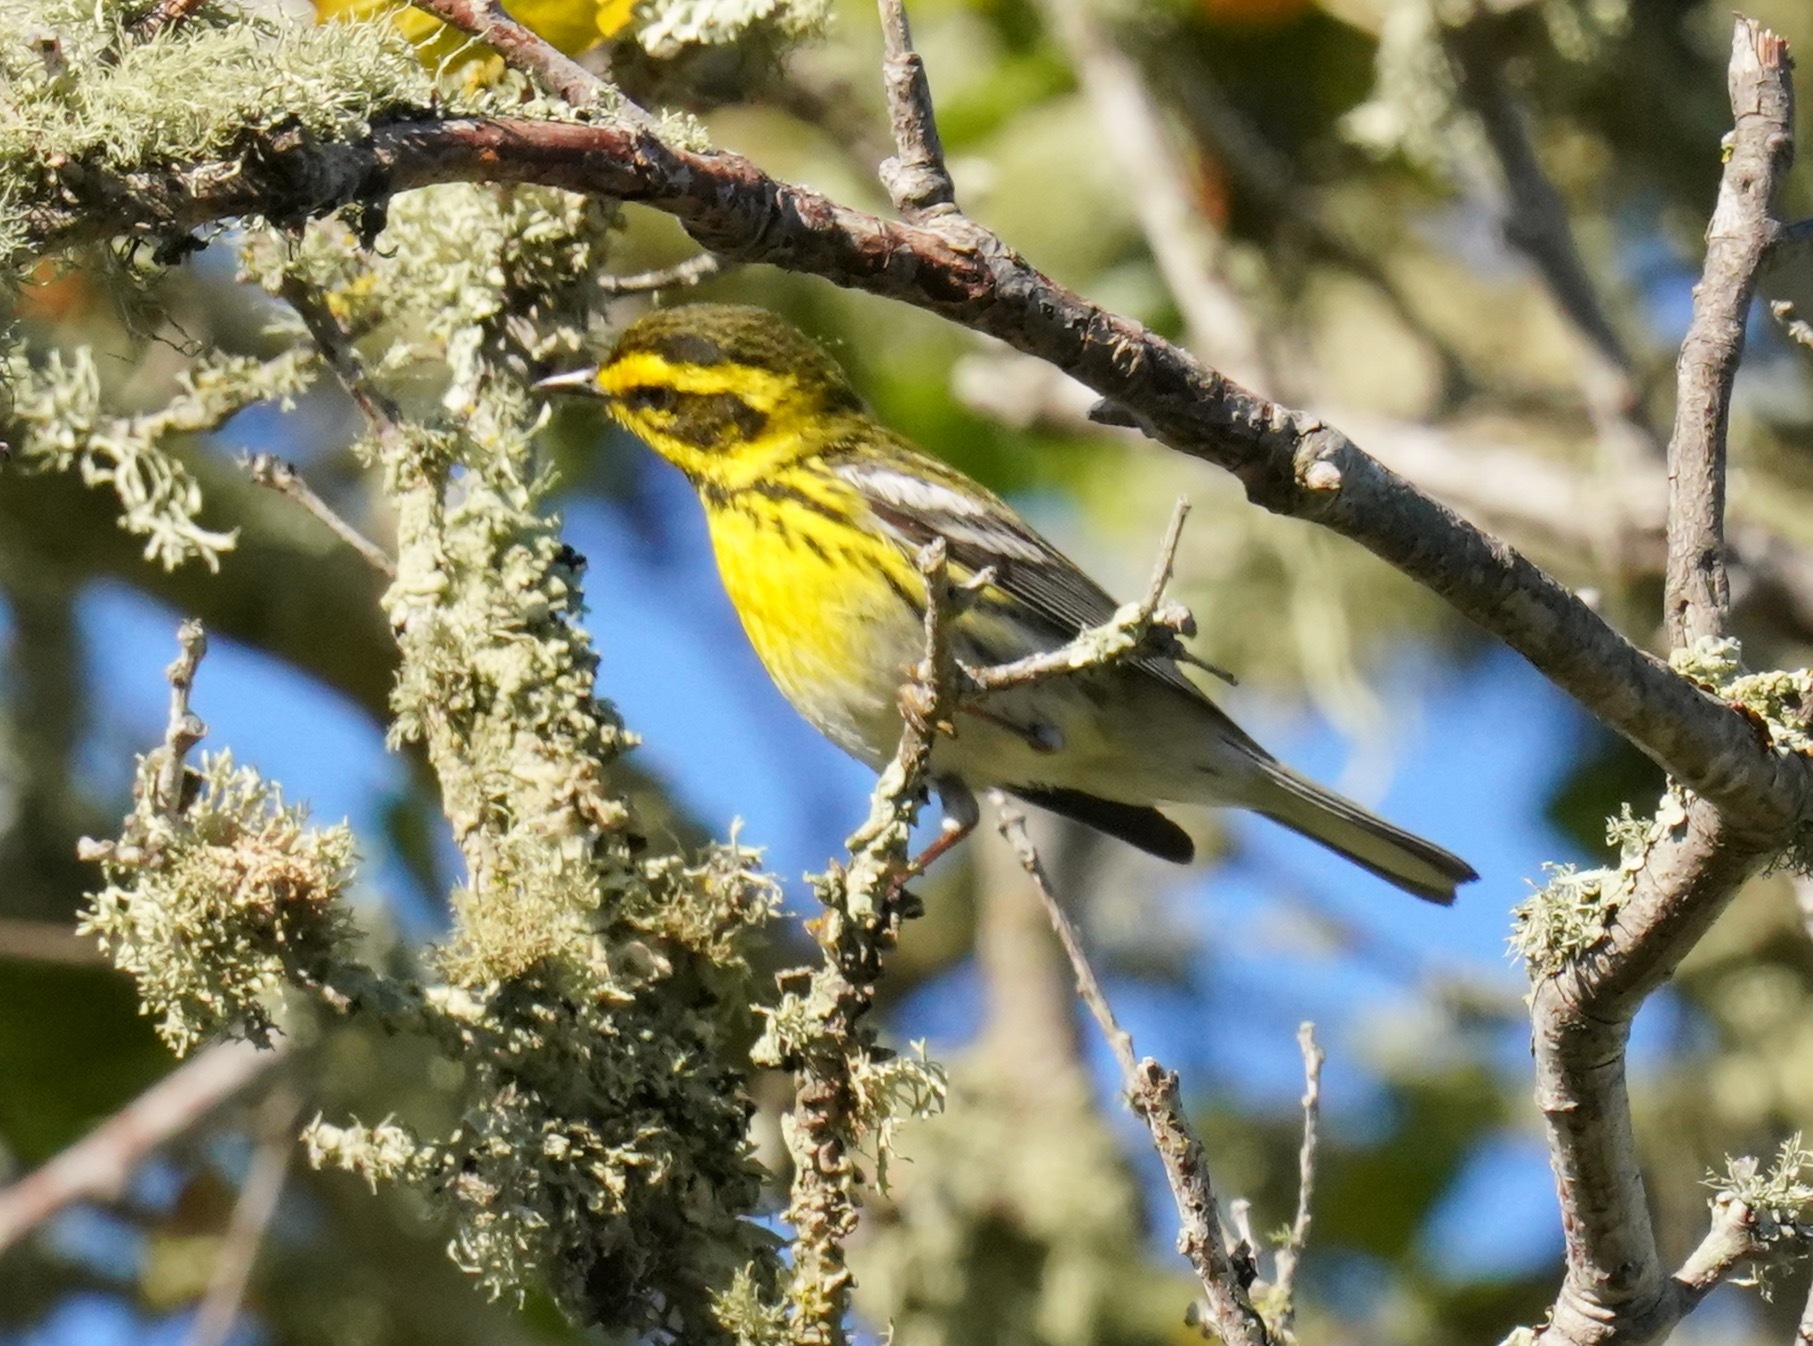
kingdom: Animalia
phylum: Chordata
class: Aves
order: Passeriformes
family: Parulidae
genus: Setophaga
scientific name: Setophaga townsendi
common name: Townsend's warbler
